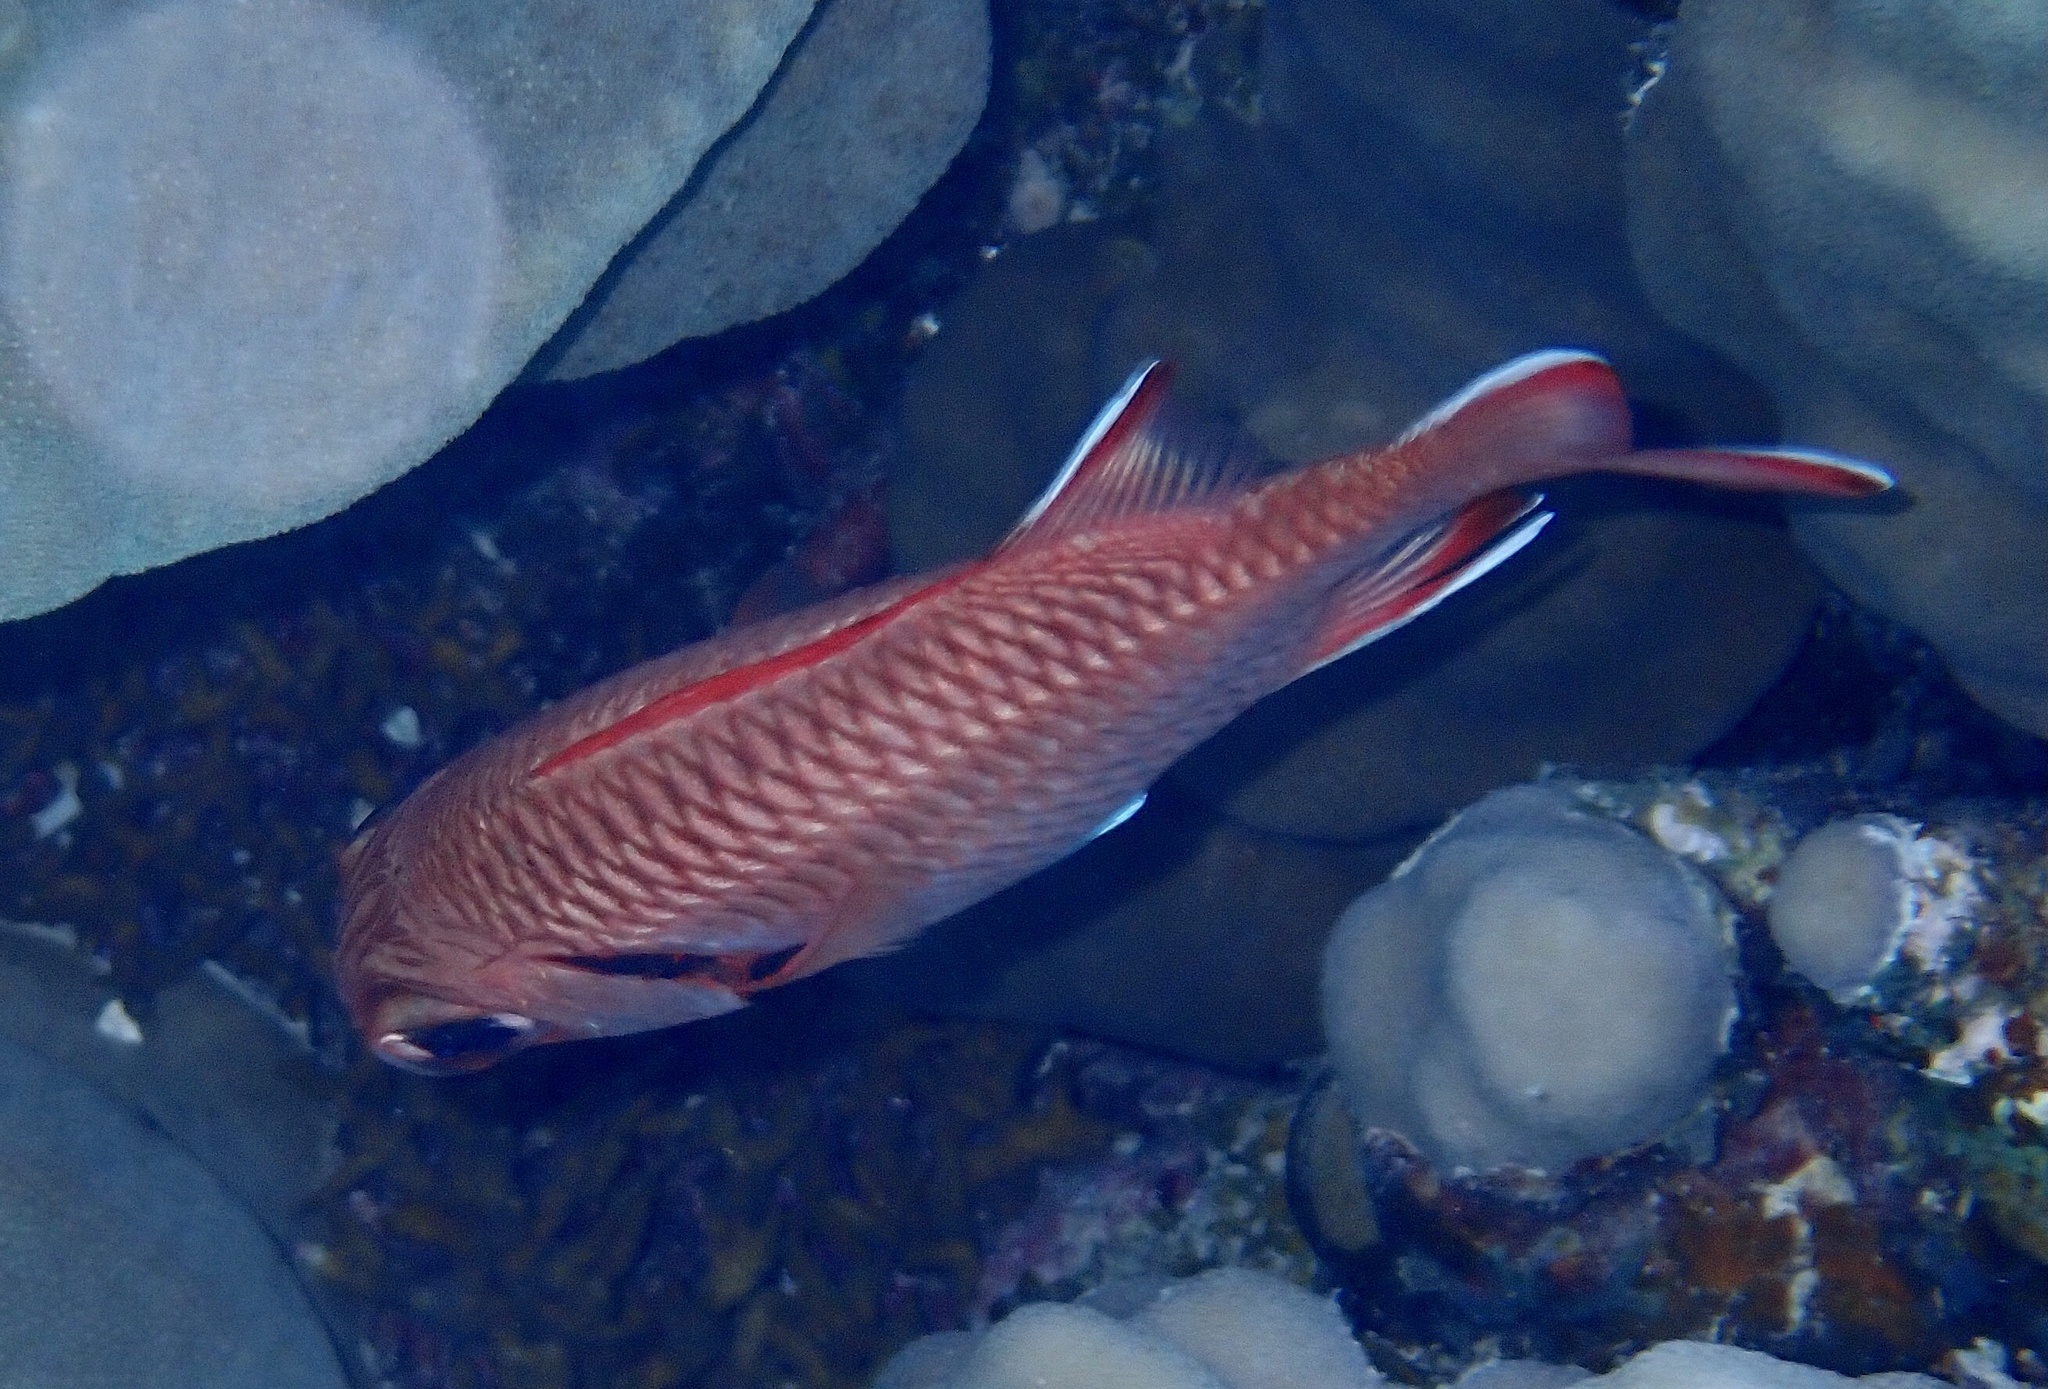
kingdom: Animalia
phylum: Chordata
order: Beryciformes
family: Holocentridae
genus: Myripristis
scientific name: Myripristis murdjan
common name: Big-eye soldierfish
